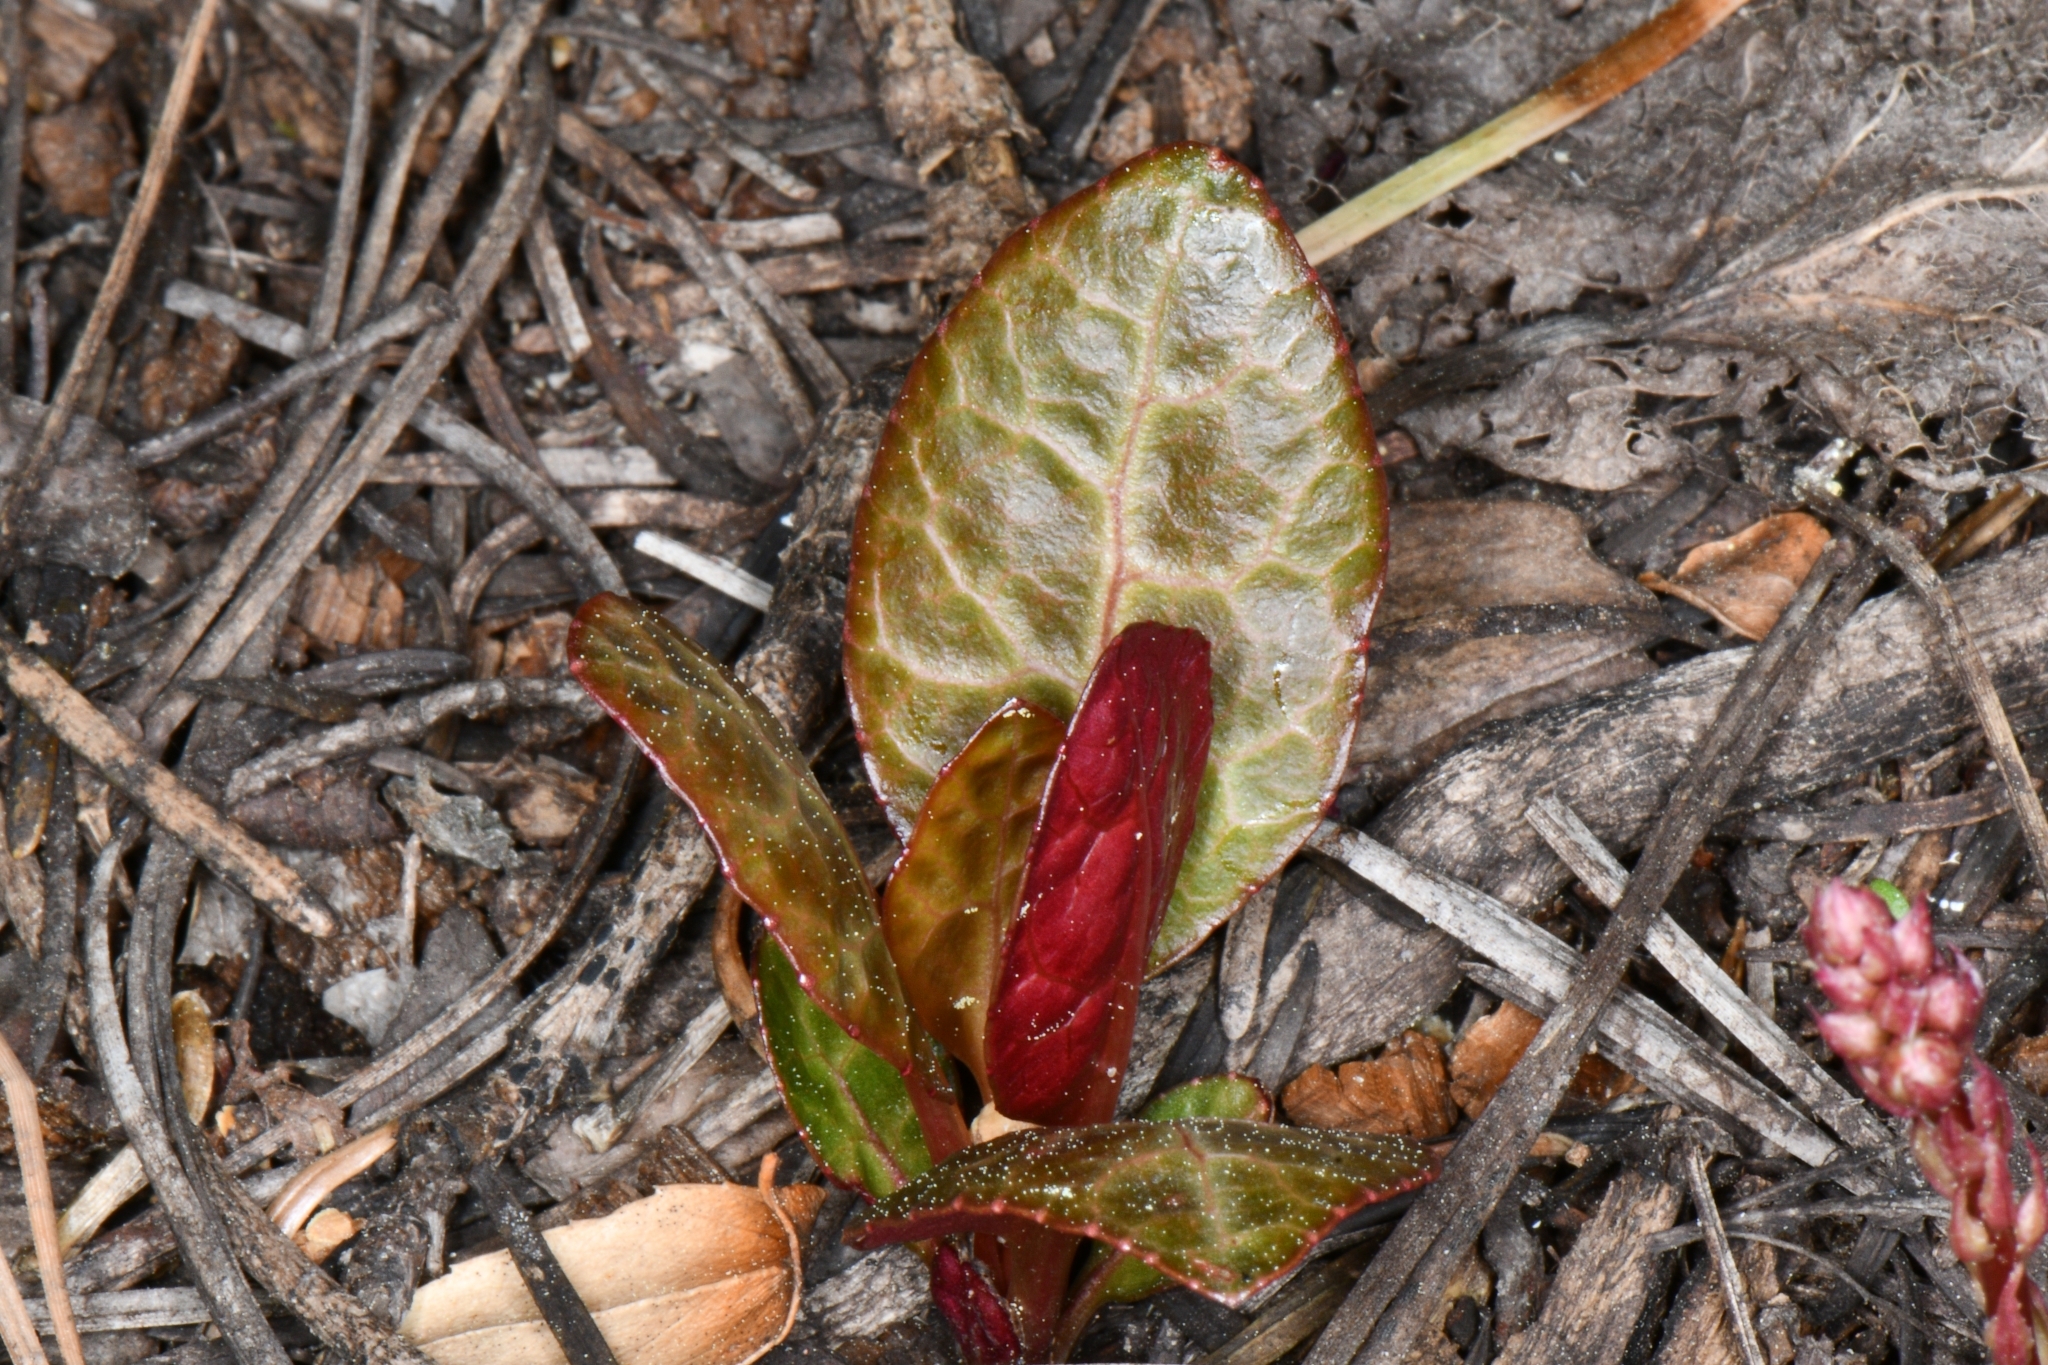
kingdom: Plantae
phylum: Tracheophyta
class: Magnoliopsida
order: Ericales
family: Ericaceae
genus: Pyrola
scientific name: Pyrola picta
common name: White-vein wintergreen
